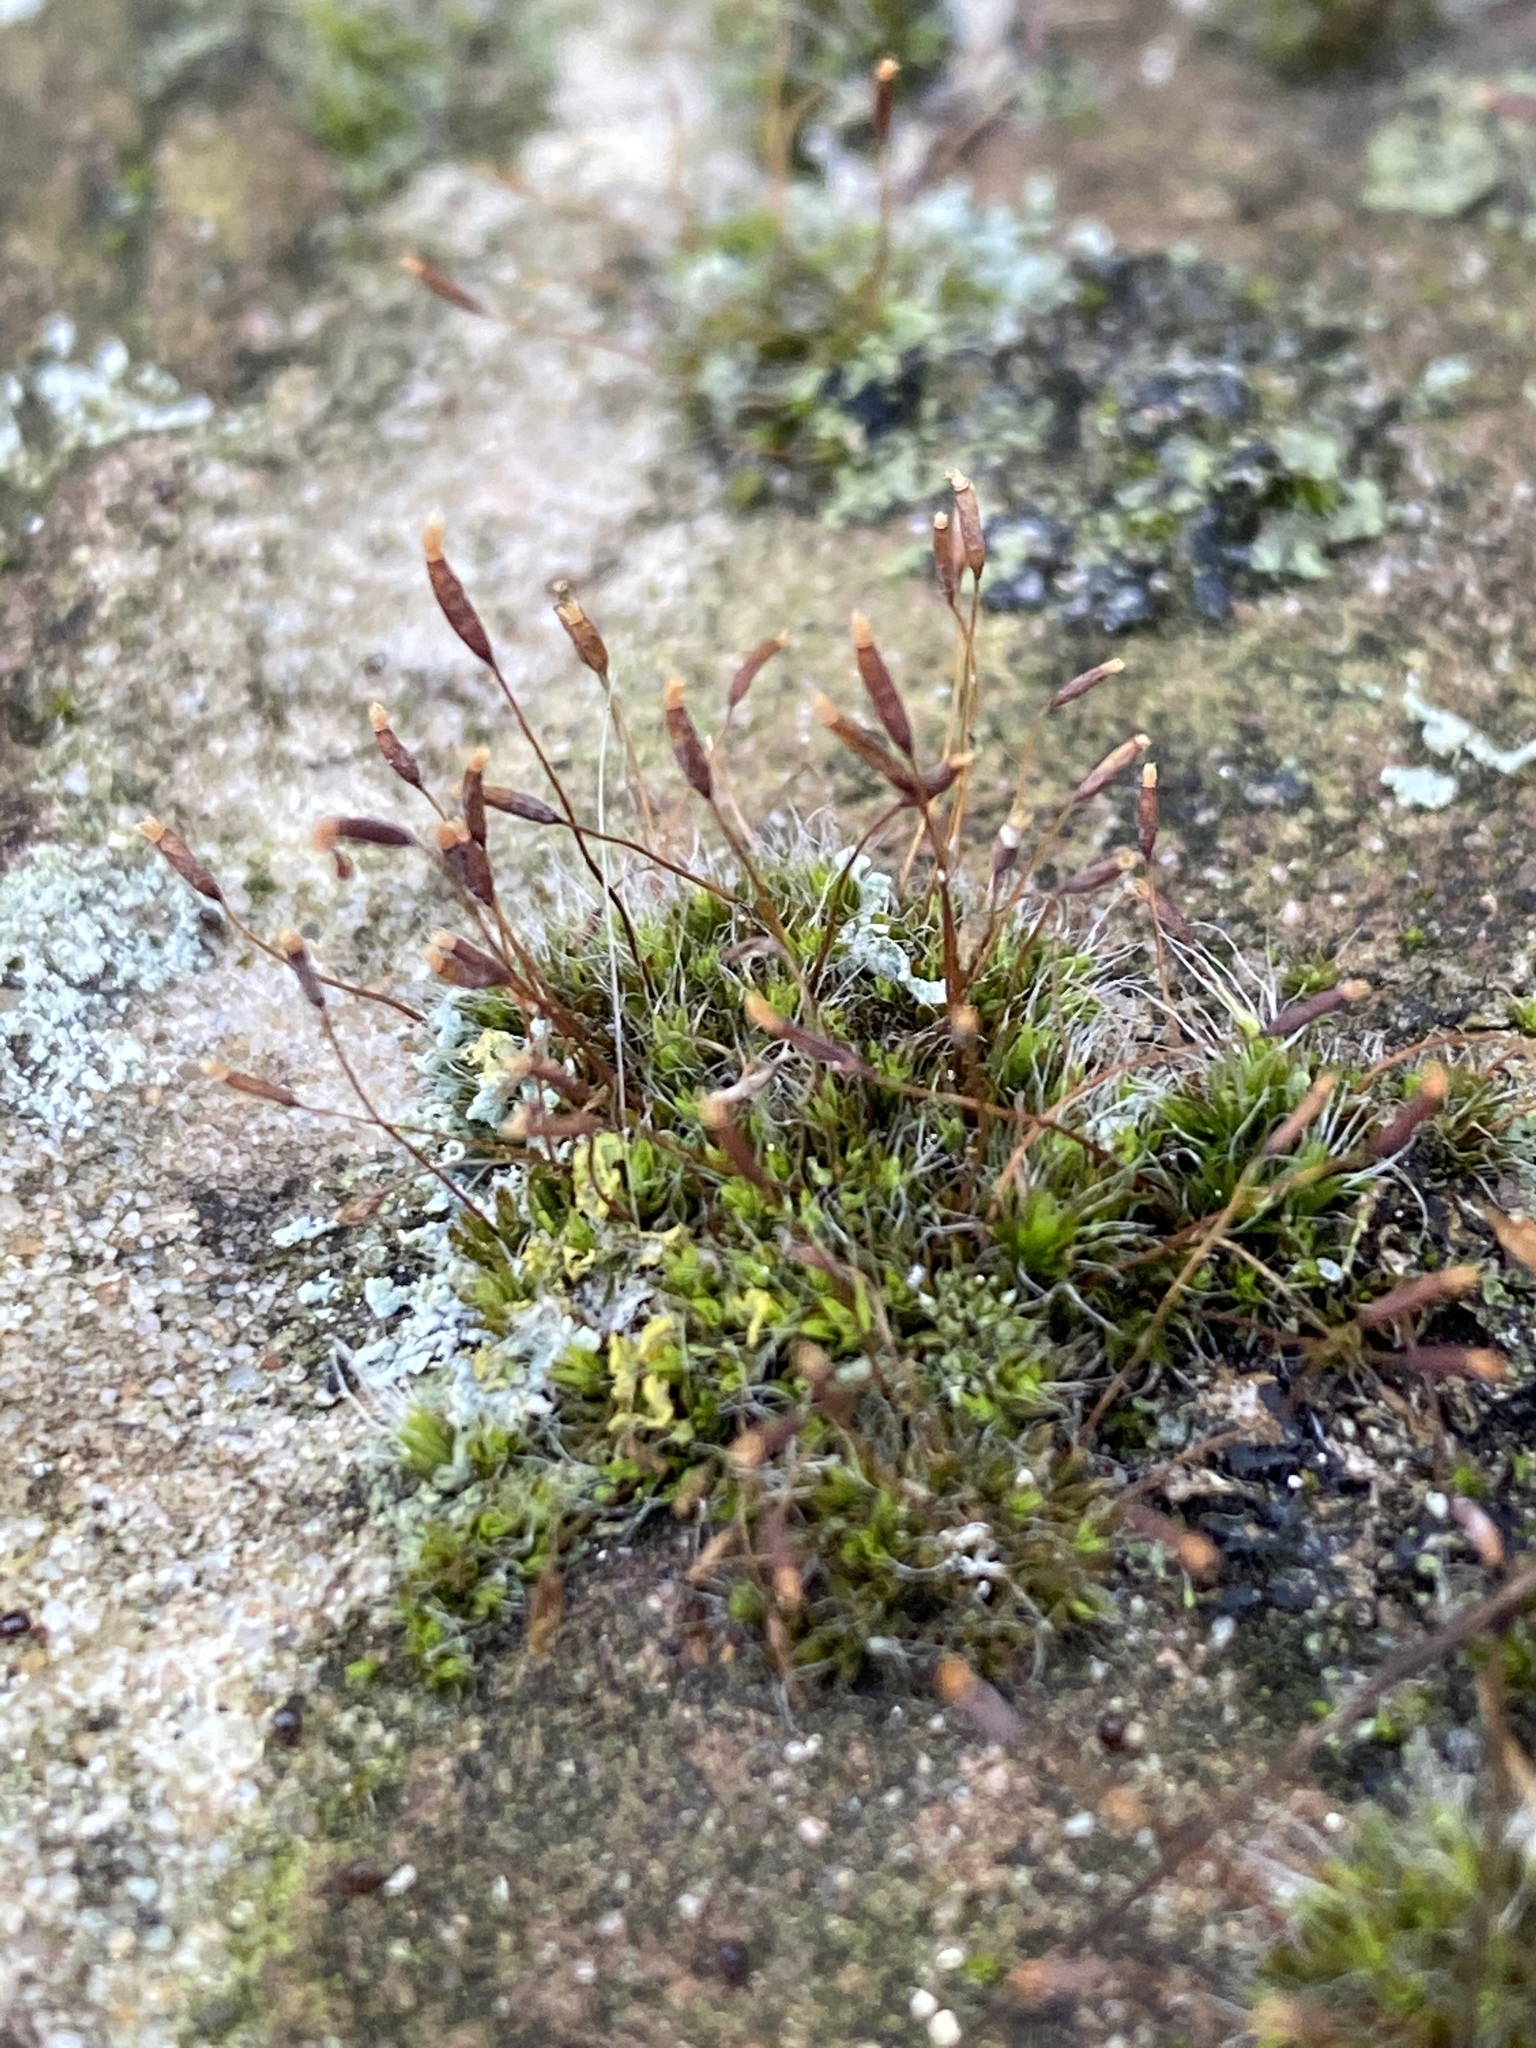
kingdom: Plantae
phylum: Bryophyta
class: Bryopsida
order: Pottiales
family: Pottiaceae
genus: Tortula
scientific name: Tortula muralis
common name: Wall screw-moss
